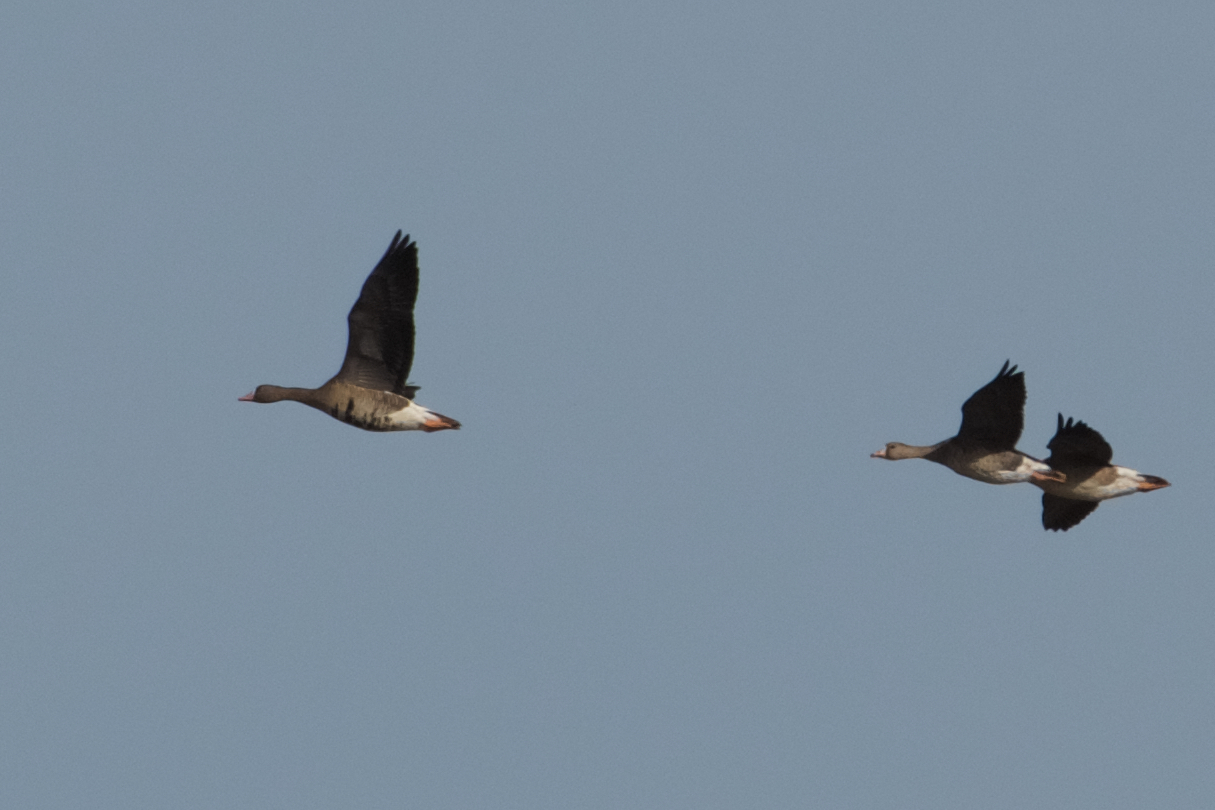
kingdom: Animalia
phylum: Chordata
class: Aves
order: Anseriformes
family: Anatidae
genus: Anser
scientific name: Anser albifrons
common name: Greater white-fronted goose
